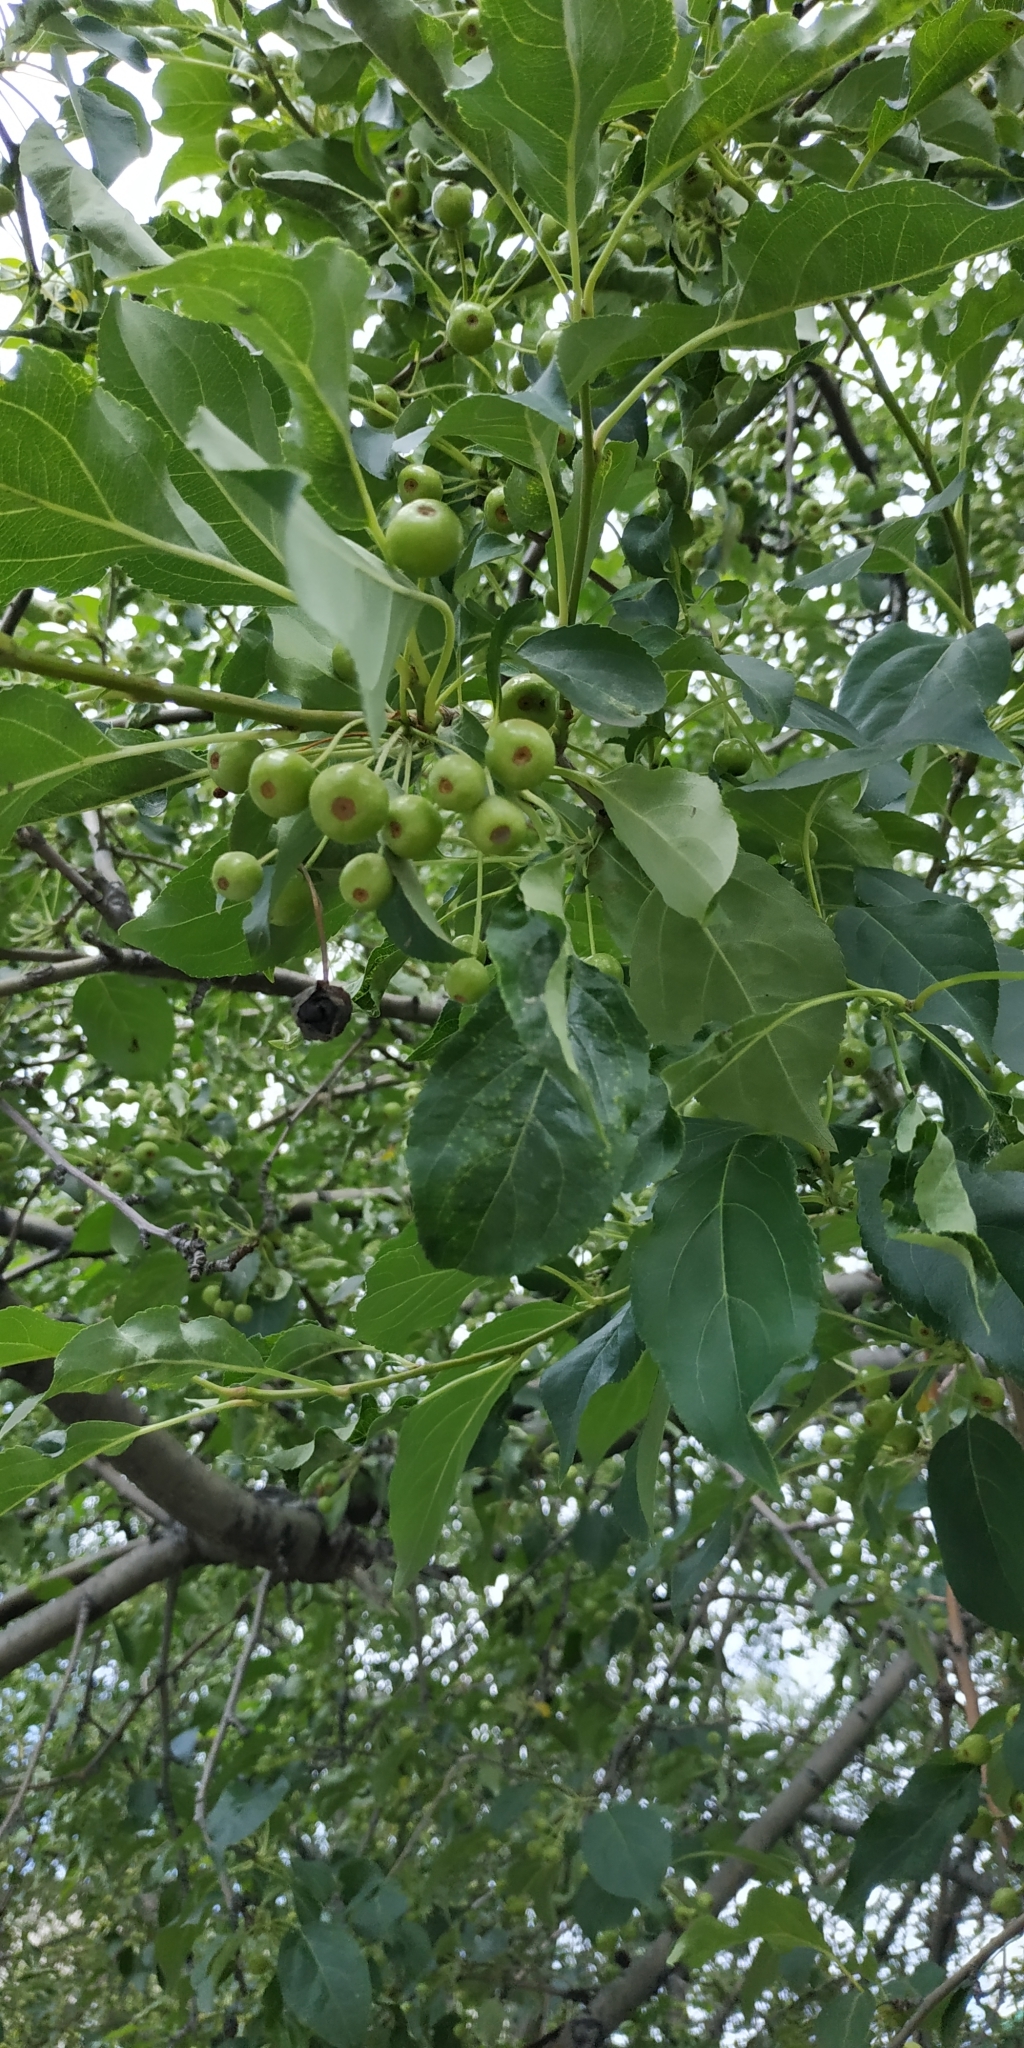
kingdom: Plantae
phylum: Tracheophyta
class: Magnoliopsida
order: Rosales
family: Rosaceae
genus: Malus
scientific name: Malus baccata
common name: Siberian crab
